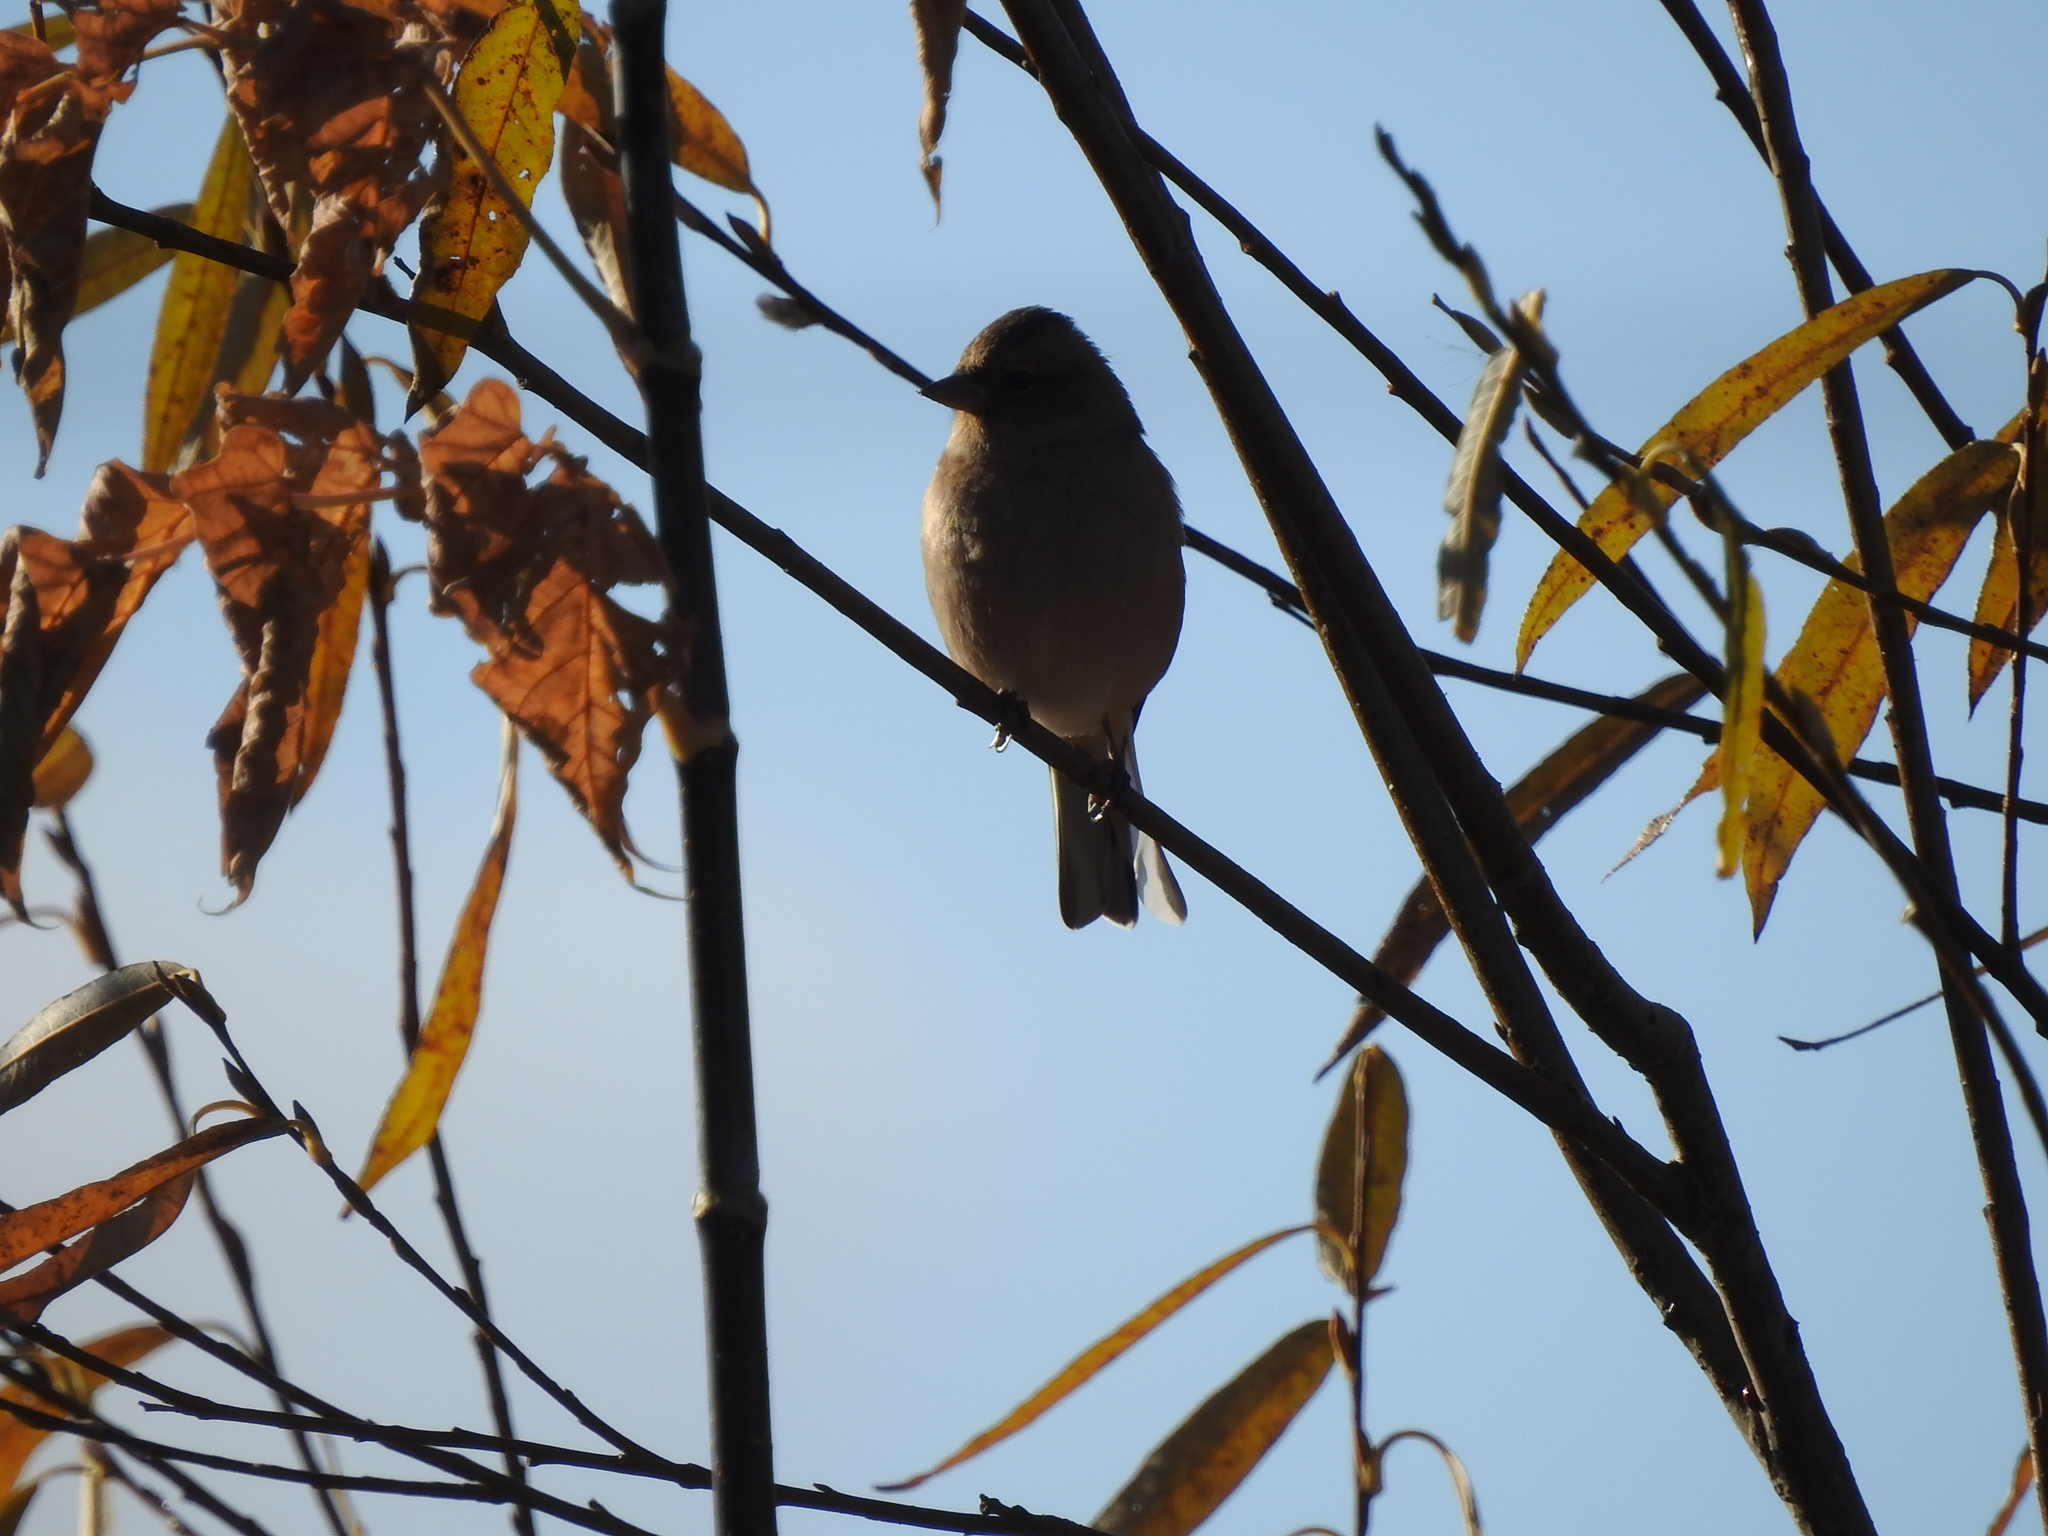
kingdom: Animalia
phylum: Chordata
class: Aves
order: Passeriformes
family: Fringillidae
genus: Fringilla
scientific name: Fringilla coelebs
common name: Common chaffinch
